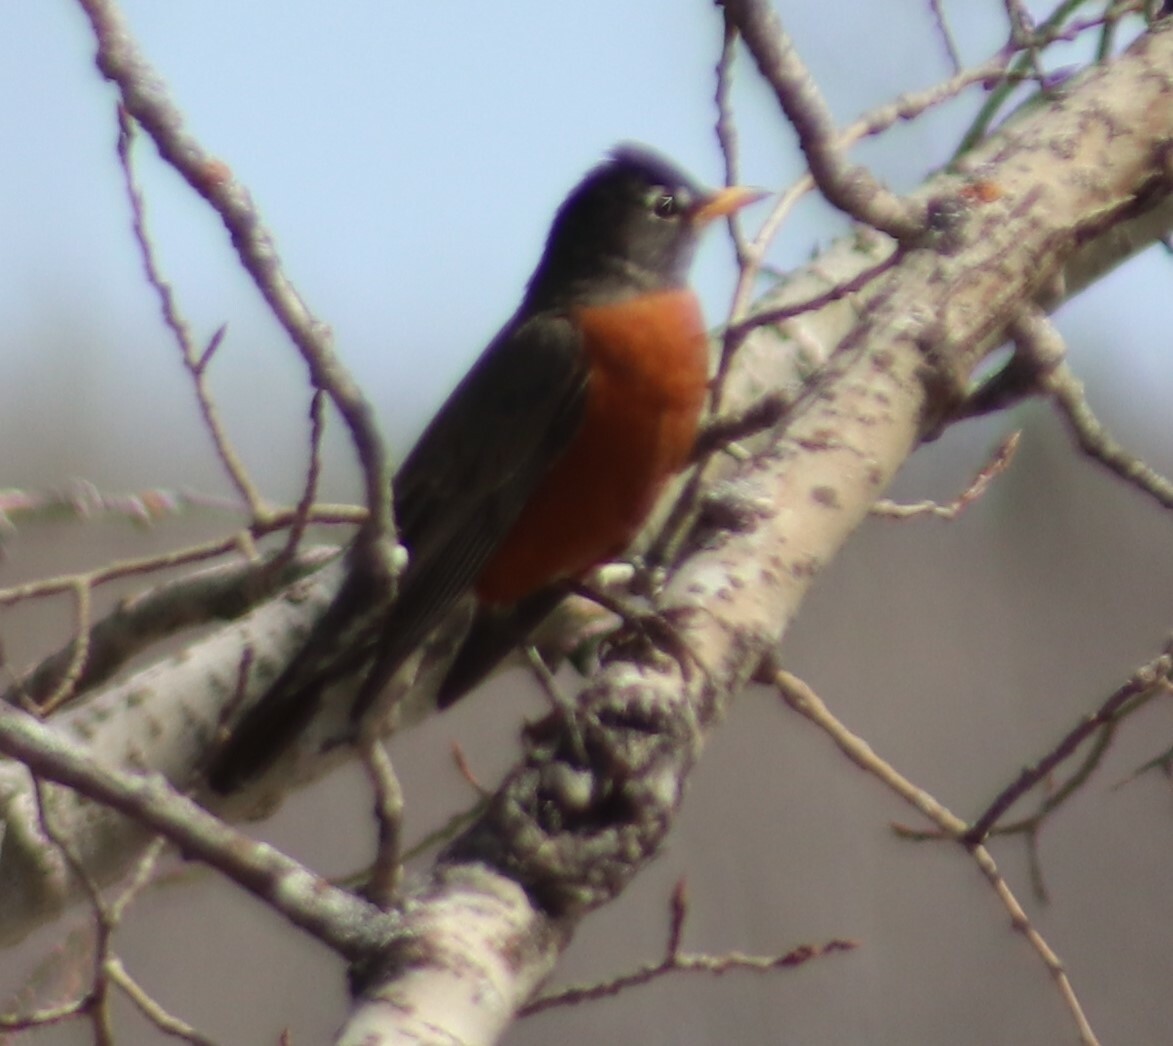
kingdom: Animalia
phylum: Chordata
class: Aves
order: Passeriformes
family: Turdidae
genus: Turdus
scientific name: Turdus migratorius
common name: American robin
